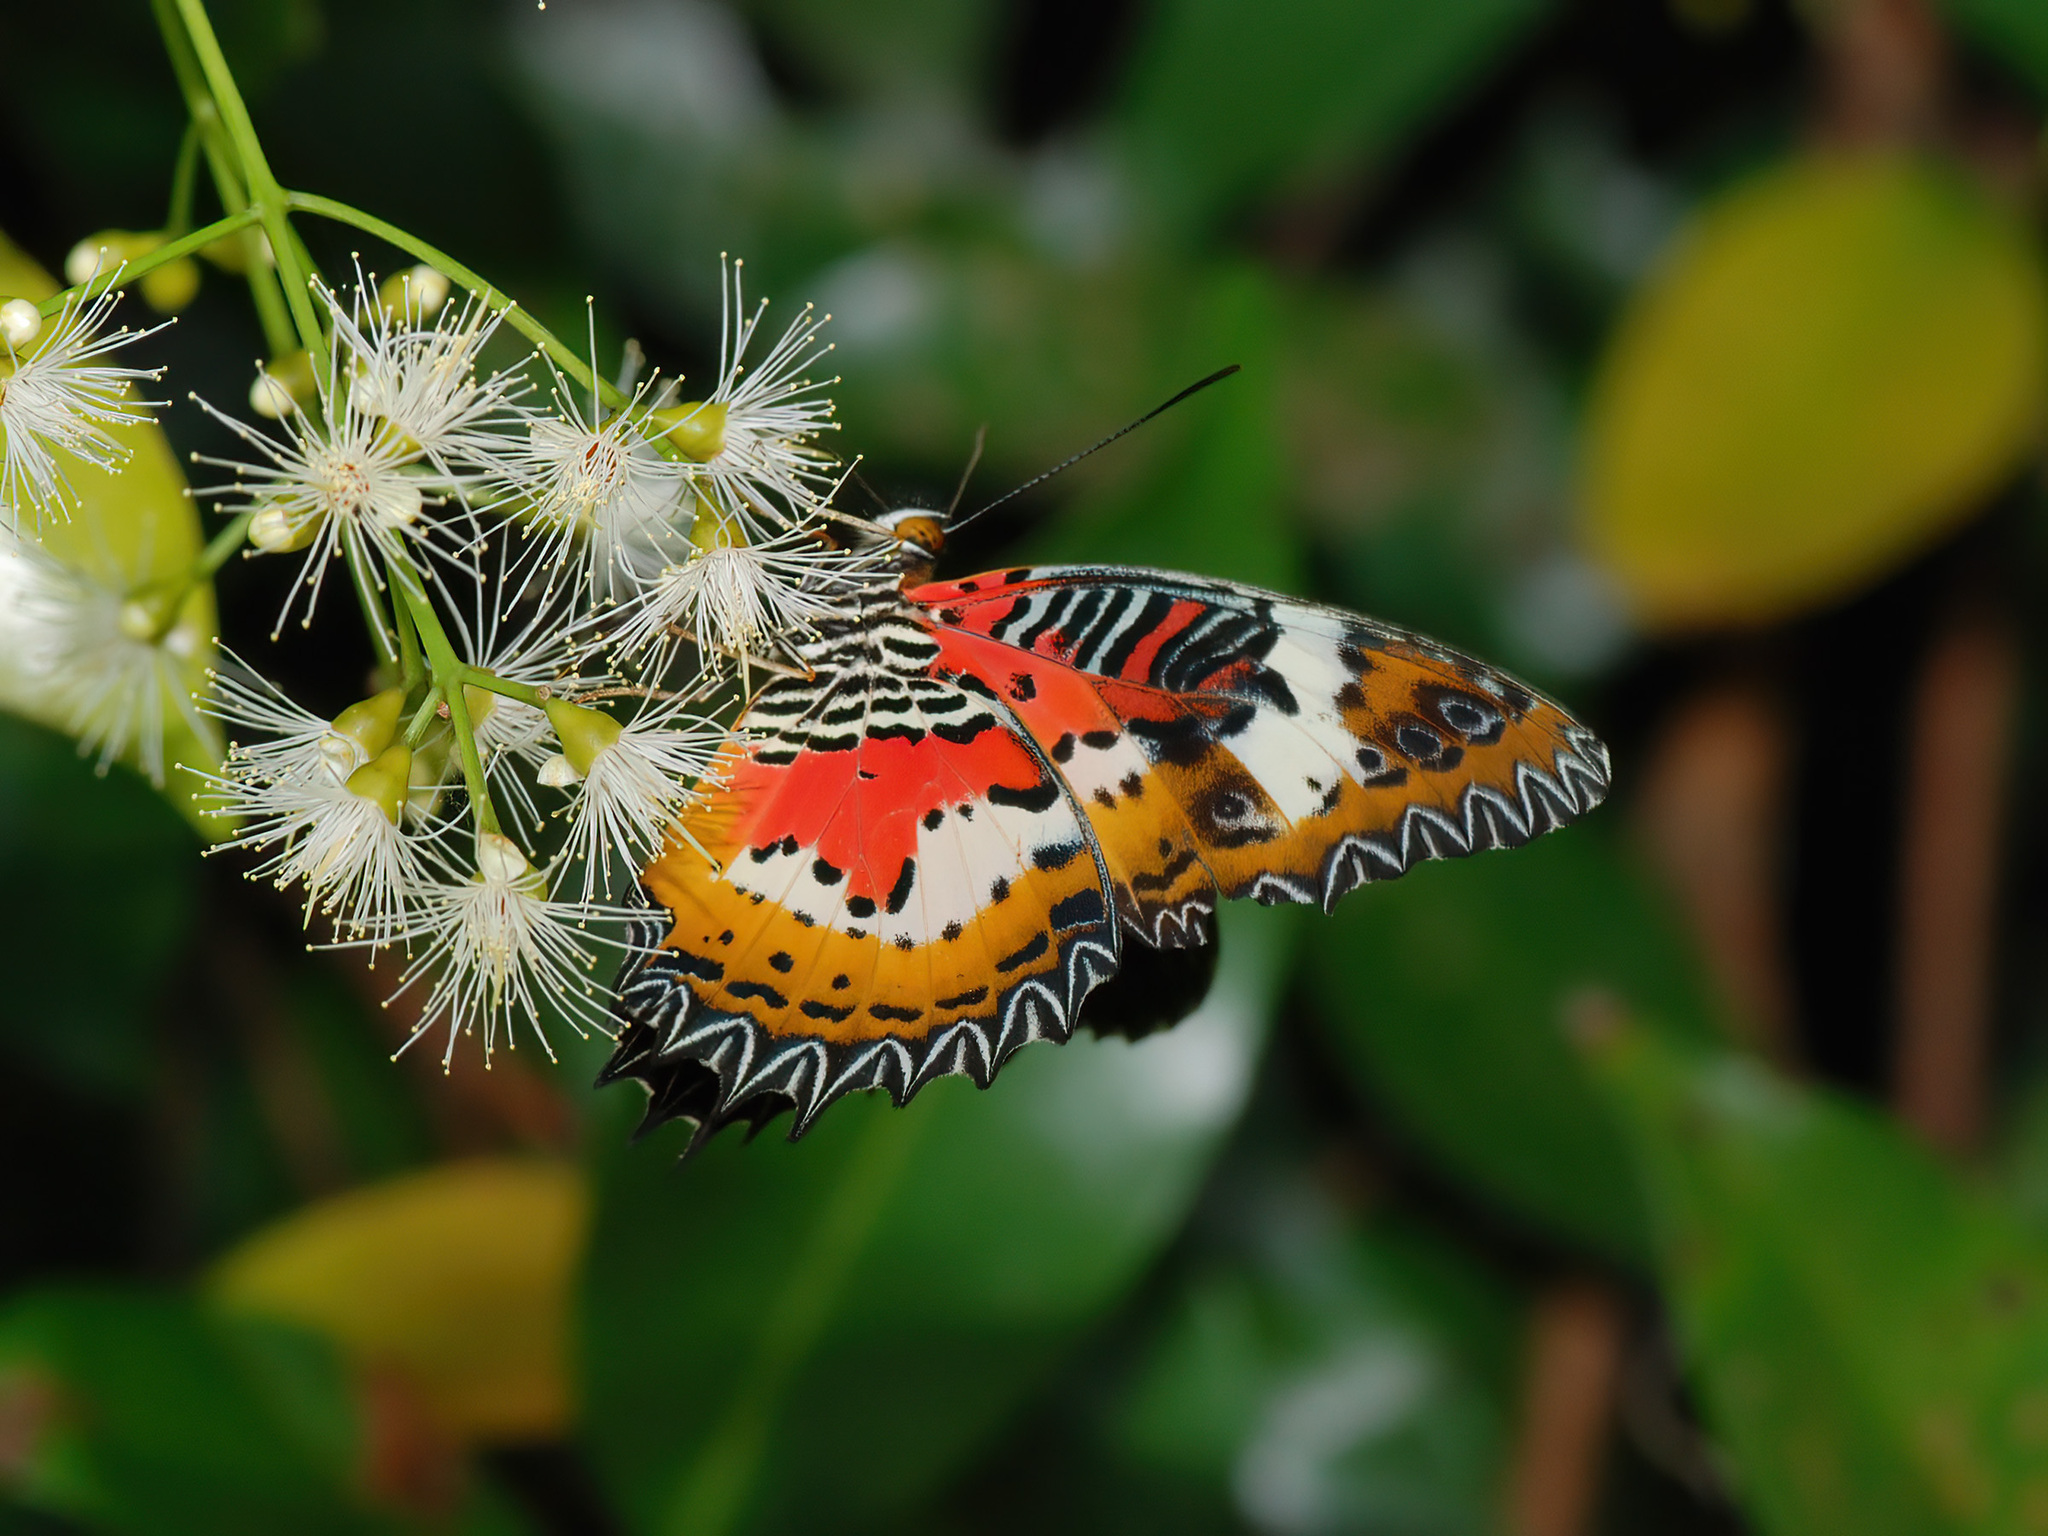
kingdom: Animalia
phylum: Arthropoda
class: Insecta
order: Lepidoptera
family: Nymphalidae
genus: Cethosia
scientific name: Cethosia hypsea
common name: Malayan lacewing butterfly
